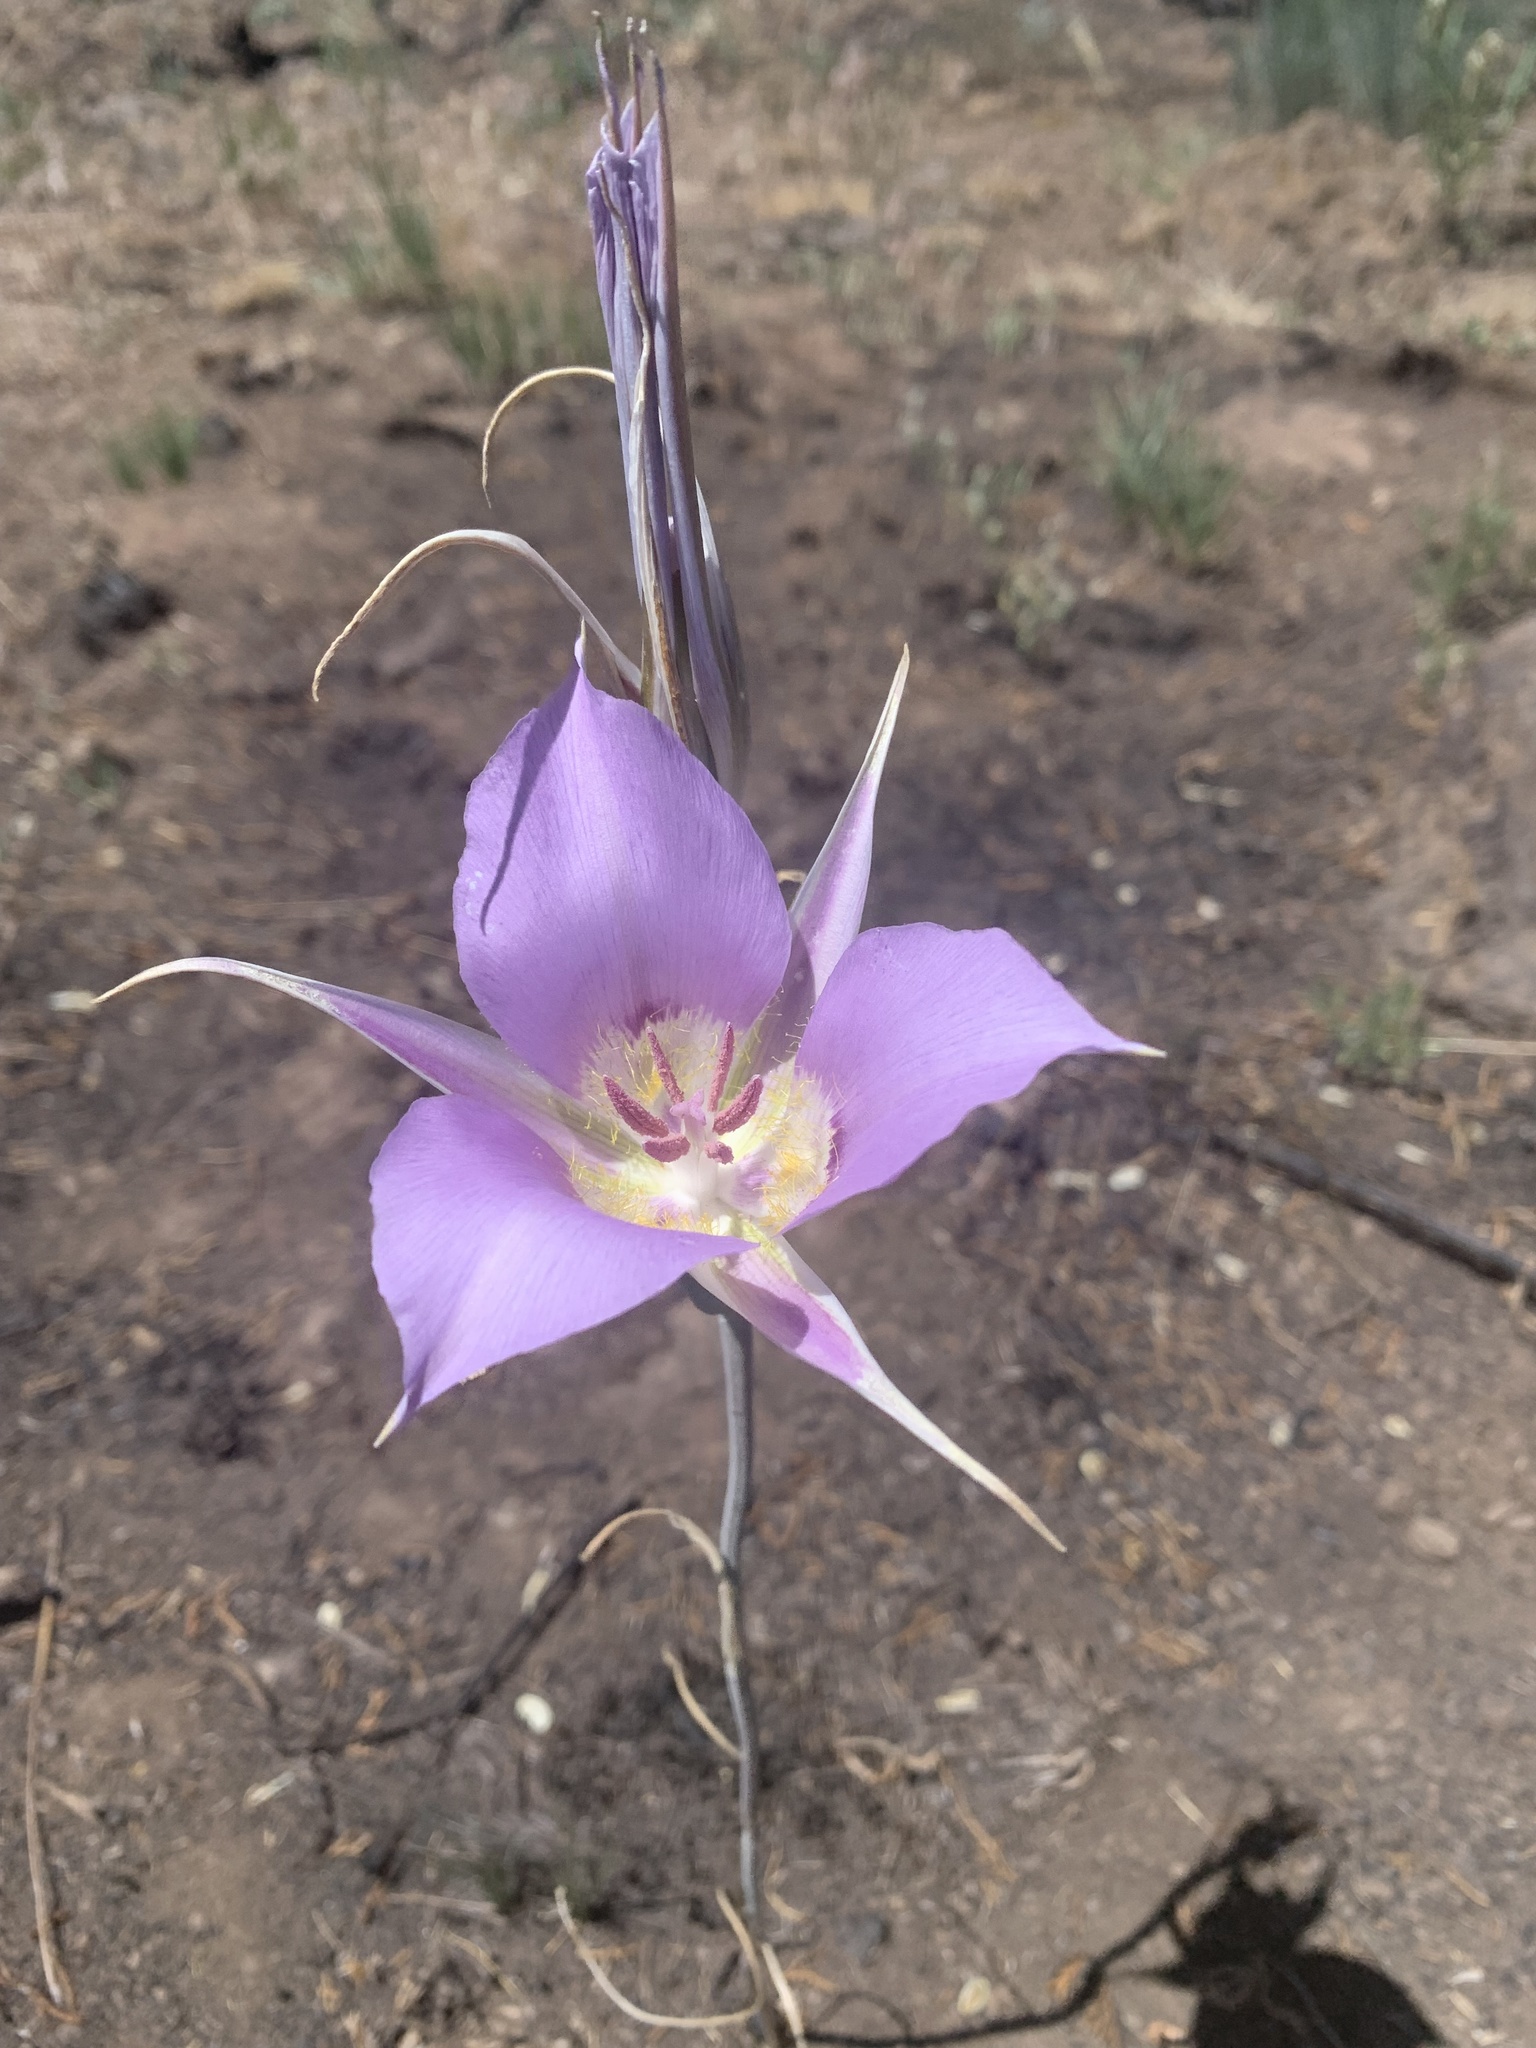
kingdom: Plantae
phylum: Tracheophyta
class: Liliopsida
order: Liliales
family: Liliaceae
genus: Calochortus
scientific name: Calochortus macrocarpus
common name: Green-band mariposa lily
